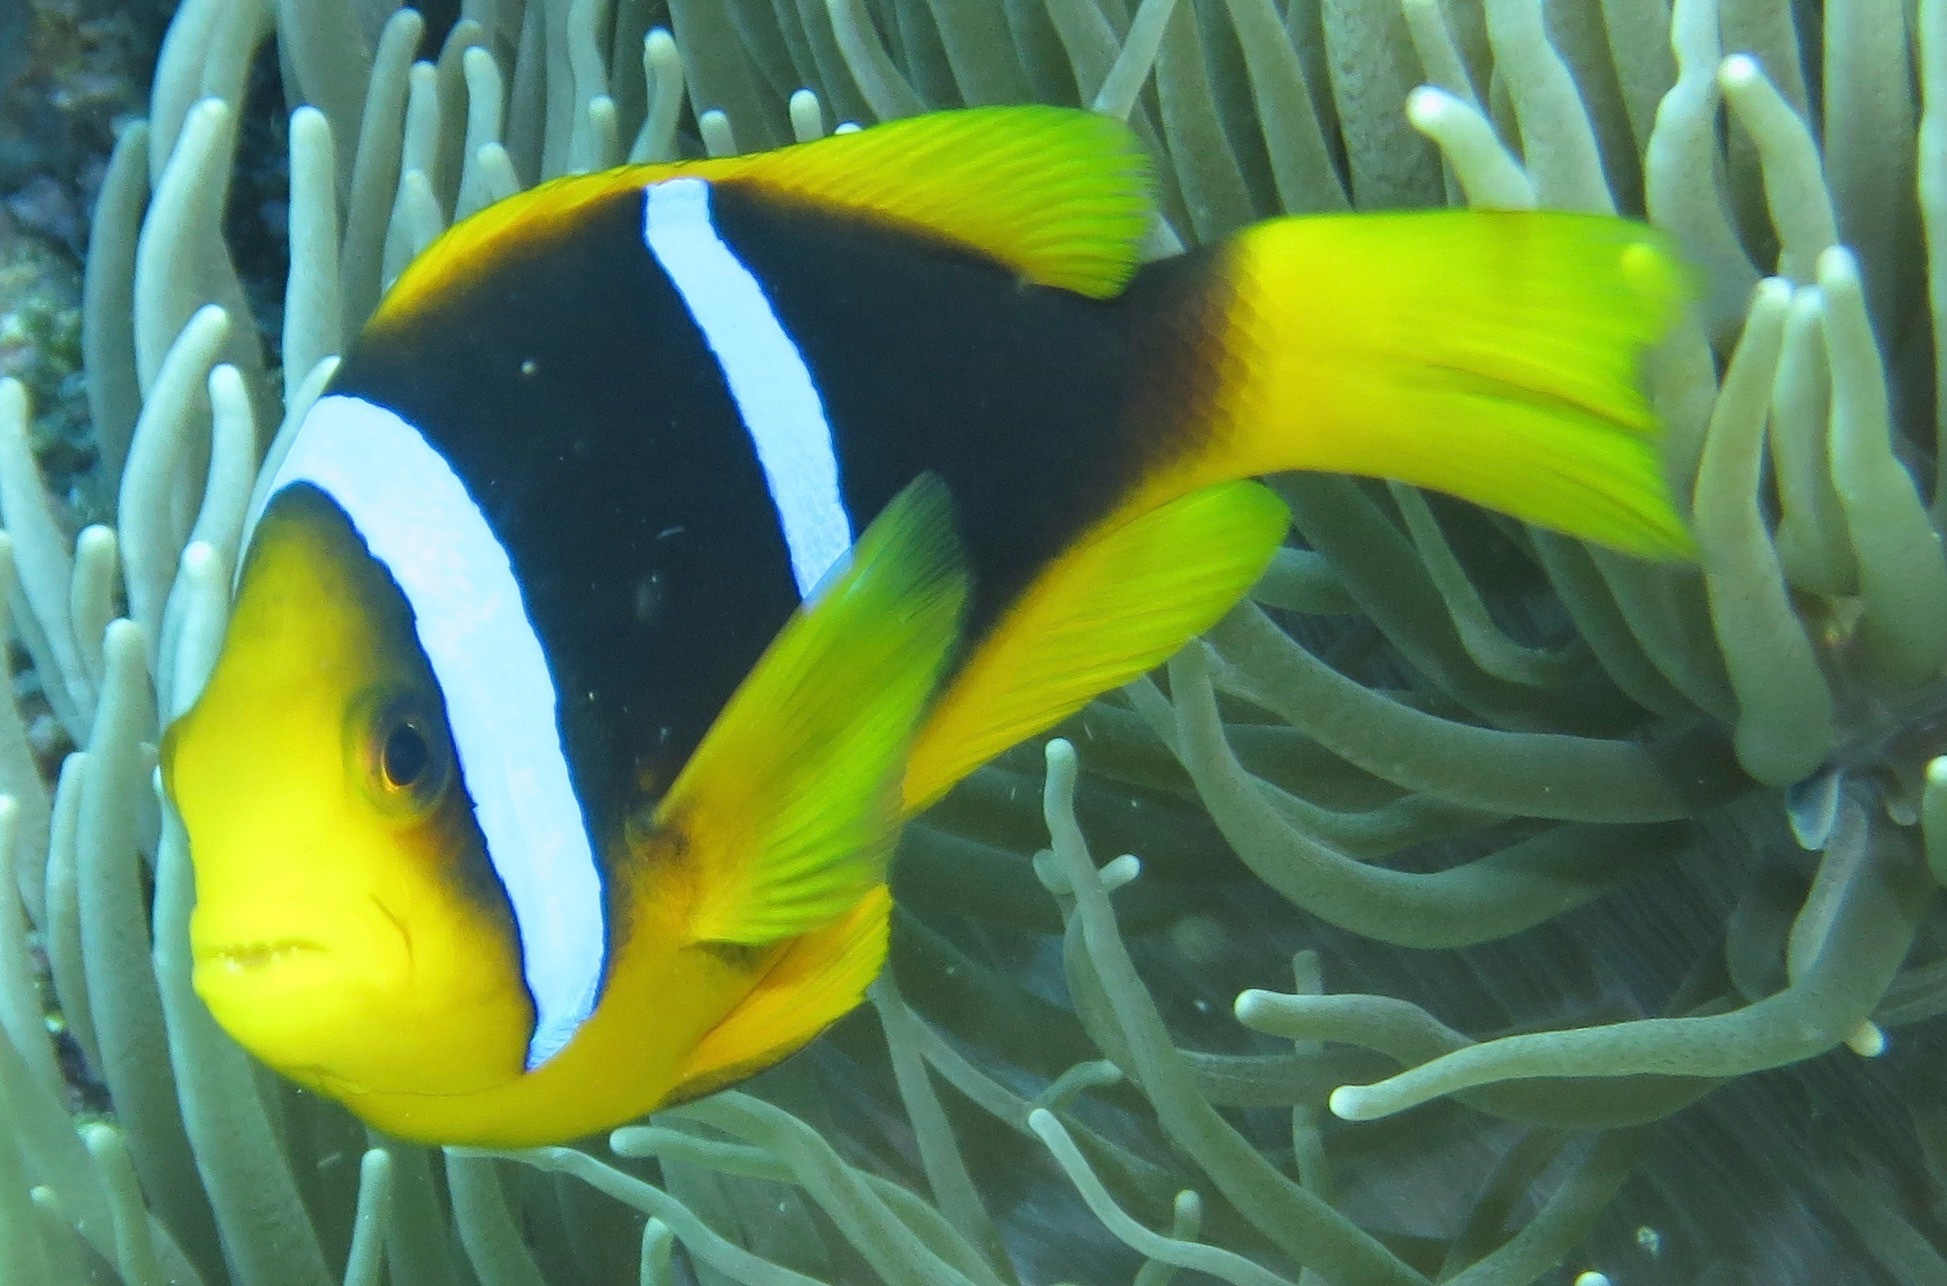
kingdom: Animalia
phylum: Chordata
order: Perciformes
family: Pomacentridae
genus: Amphiprion
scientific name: Amphiprion chrysopterus
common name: Orange-fin anemonefish
